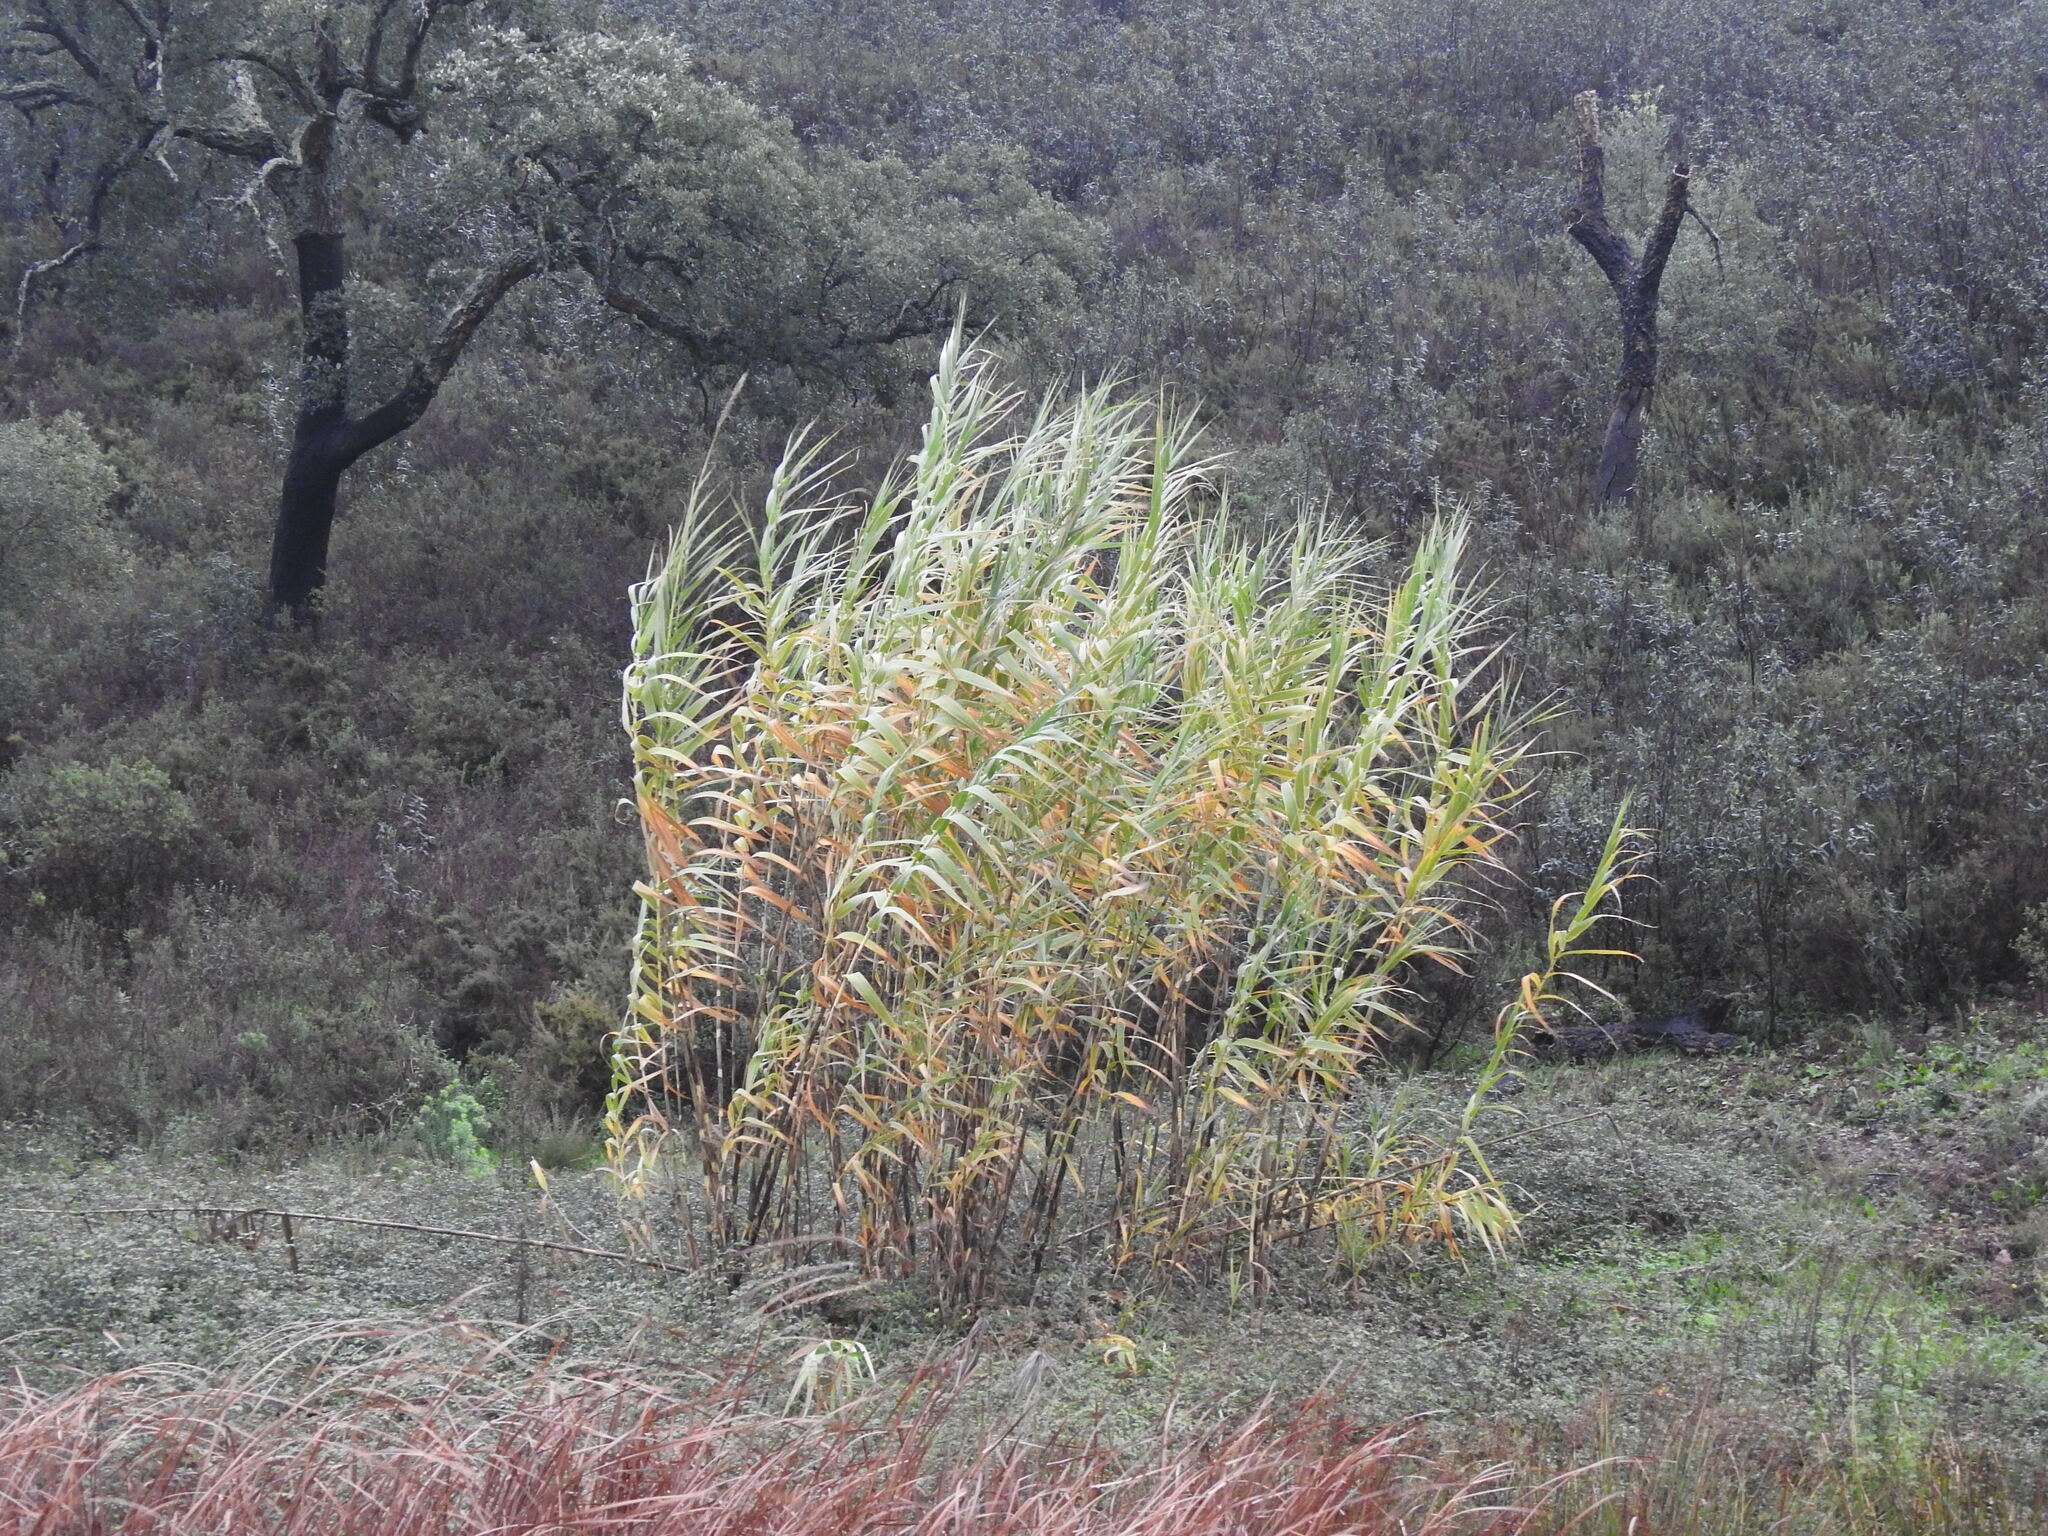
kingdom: Plantae
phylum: Tracheophyta
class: Liliopsida
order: Poales
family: Poaceae
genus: Arundo
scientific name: Arundo donax
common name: Giant reed
